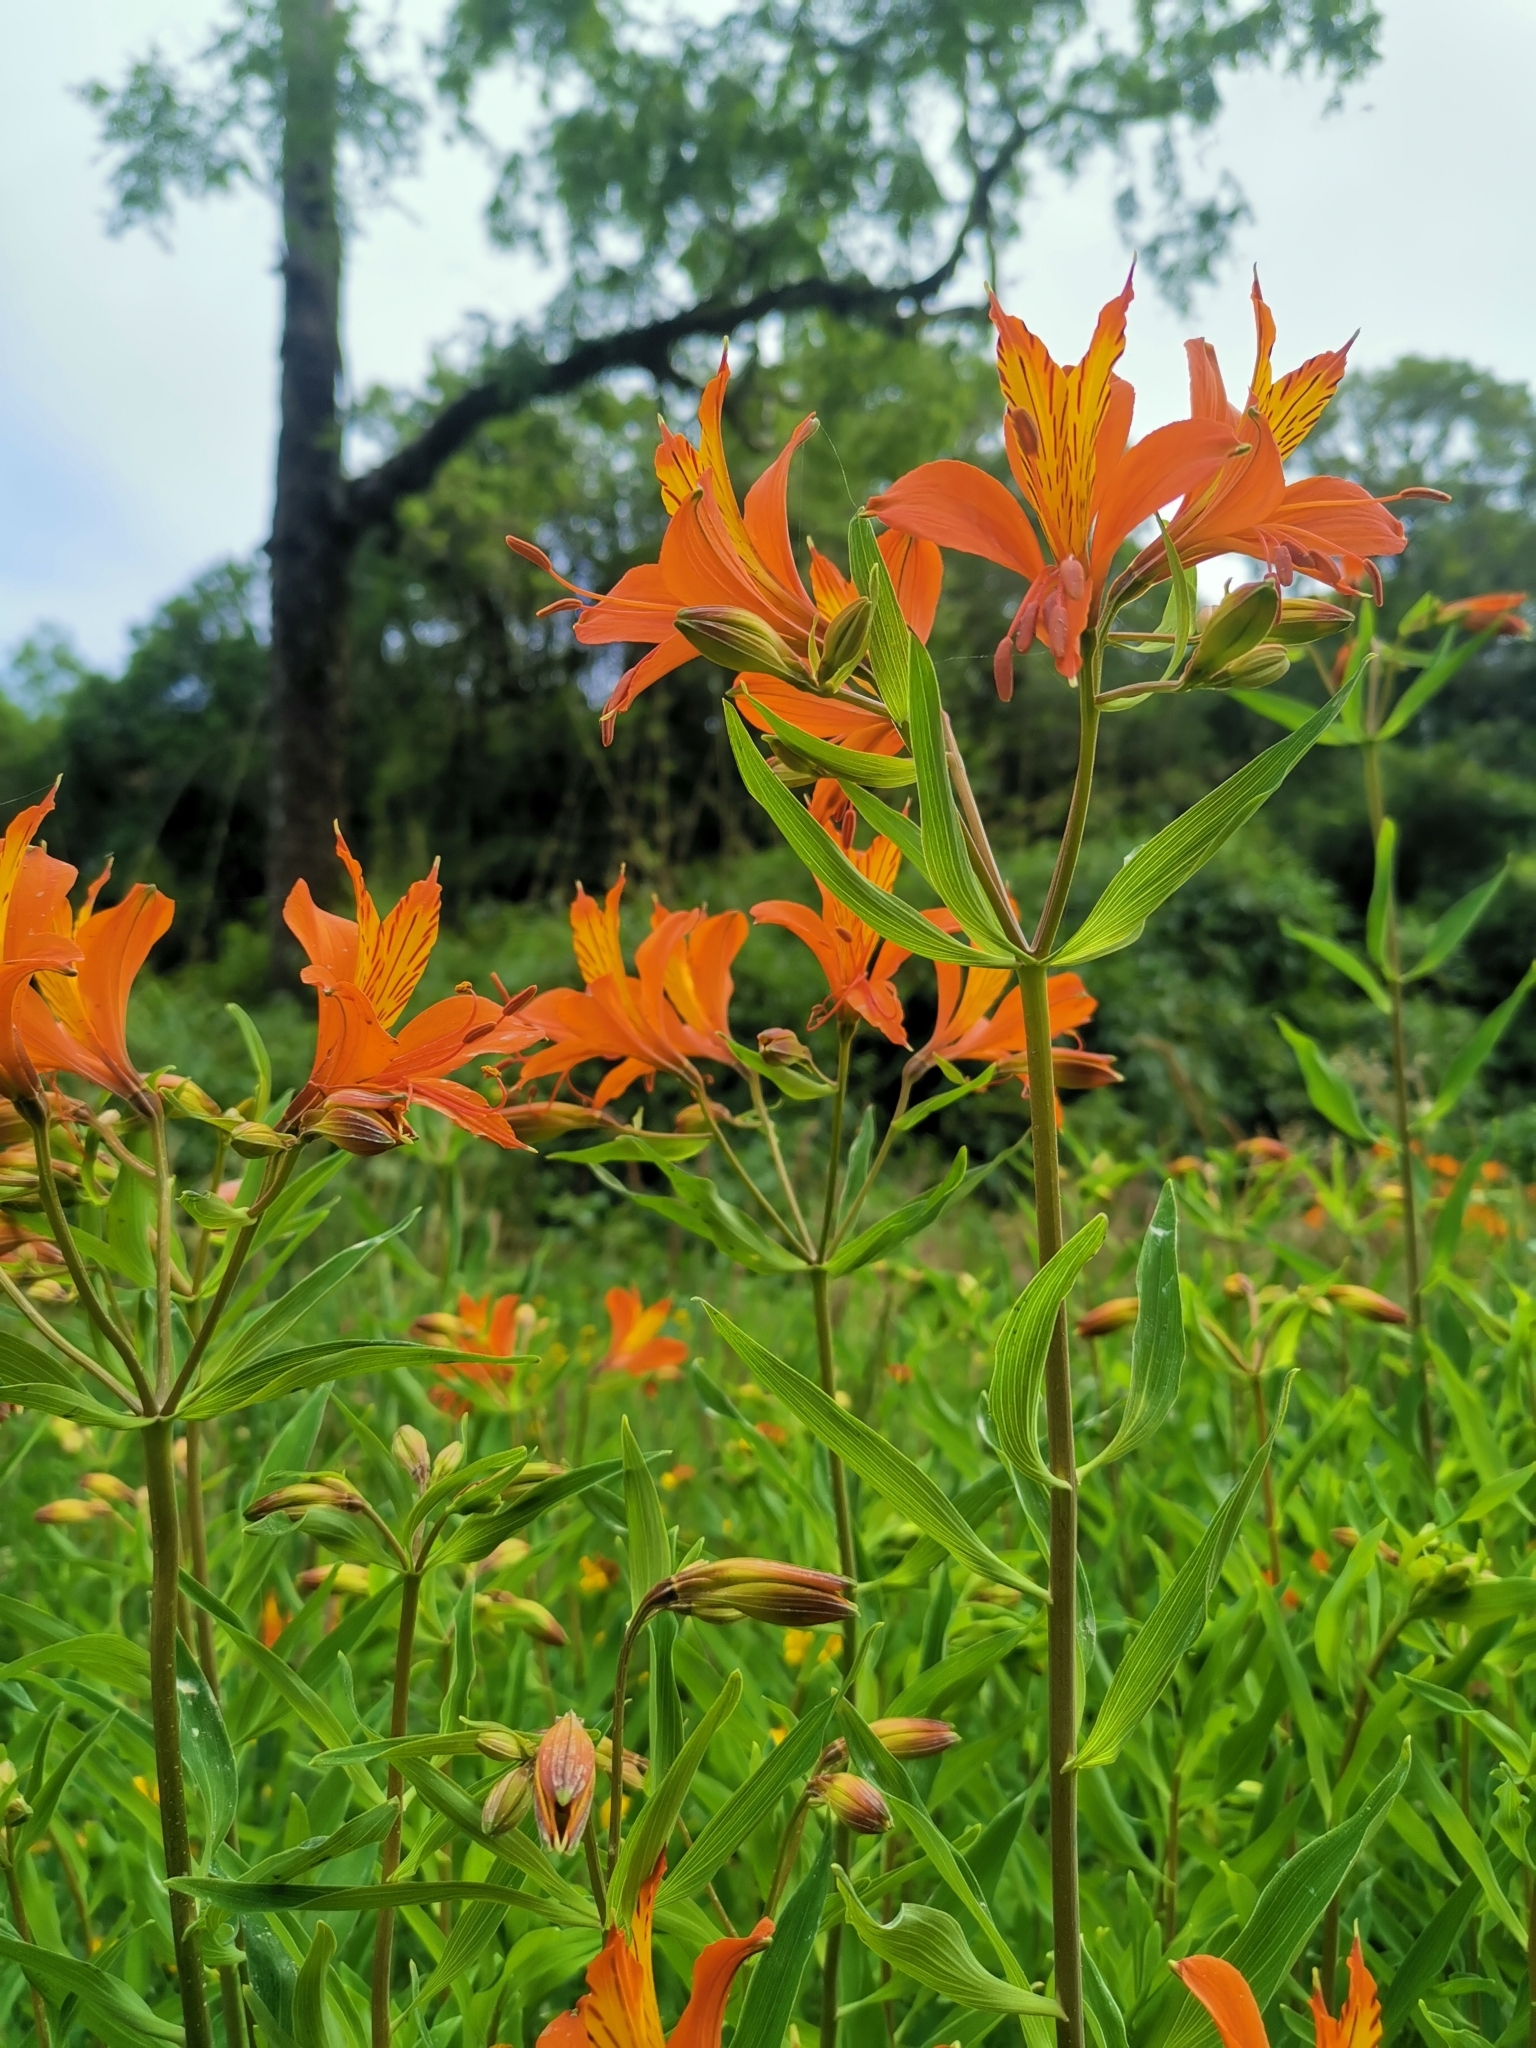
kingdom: Plantae
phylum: Tracheophyta
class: Liliopsida
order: Liliales
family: Alstroemeriaceae
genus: Alstroemeria
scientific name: Alstroemeria aurea
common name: Peruvian lily
